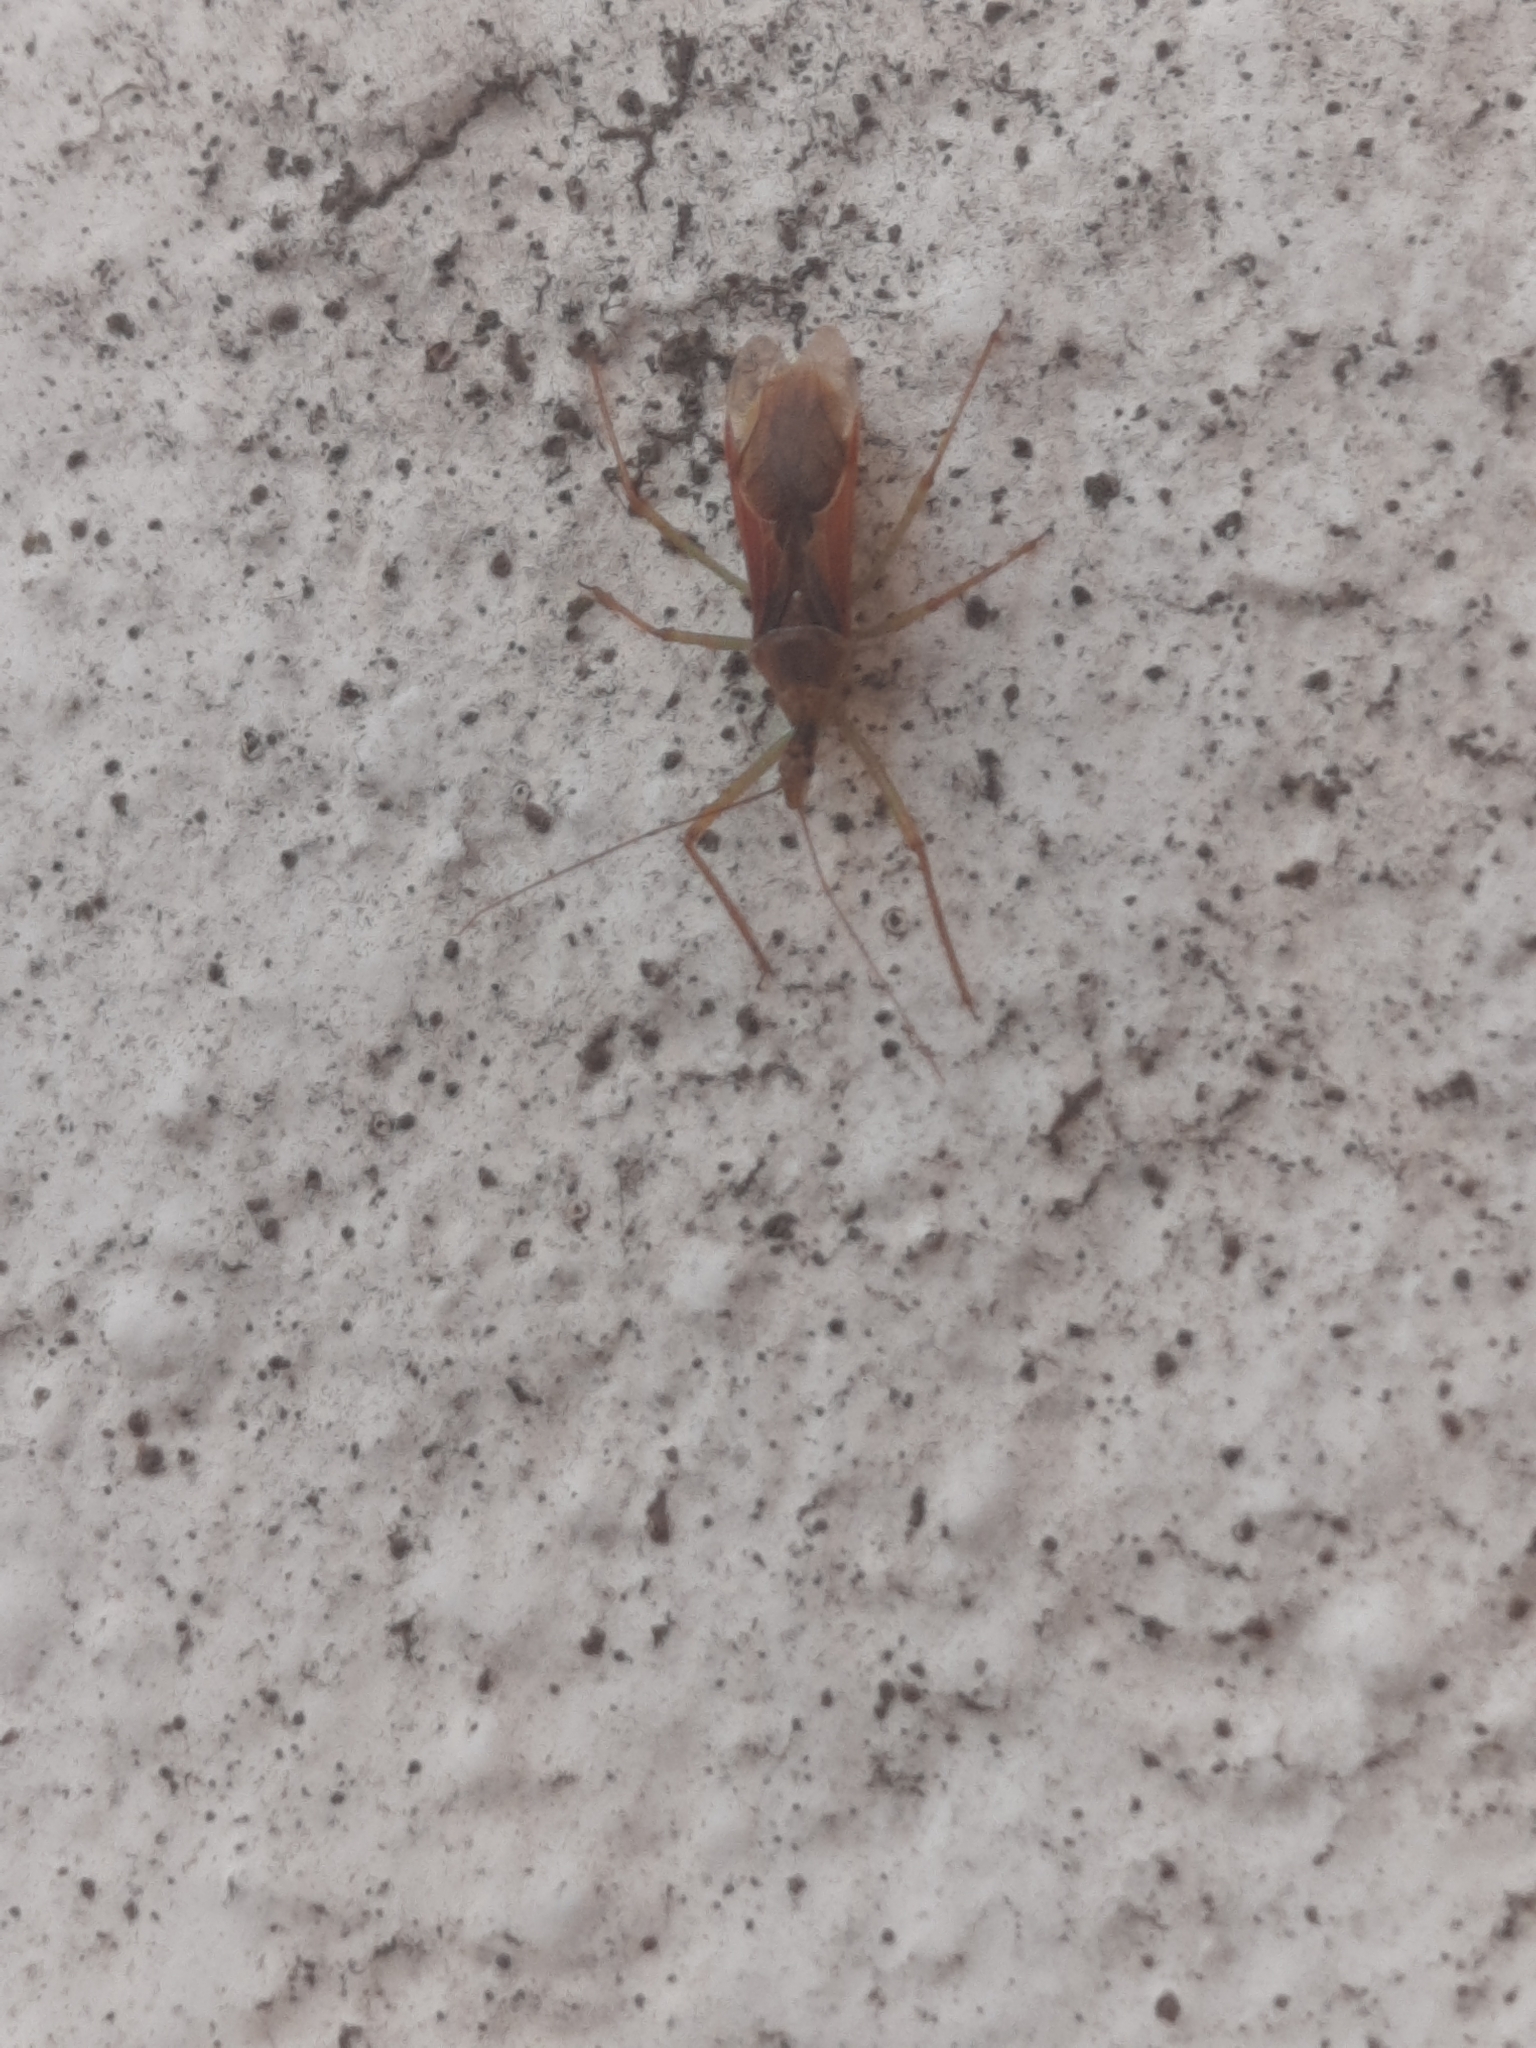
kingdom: Animalia
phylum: Arthropoda
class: Insecta
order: Hemiptera
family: Reduviidae
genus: Zelus
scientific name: Zelus renardii
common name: Assassin bug
